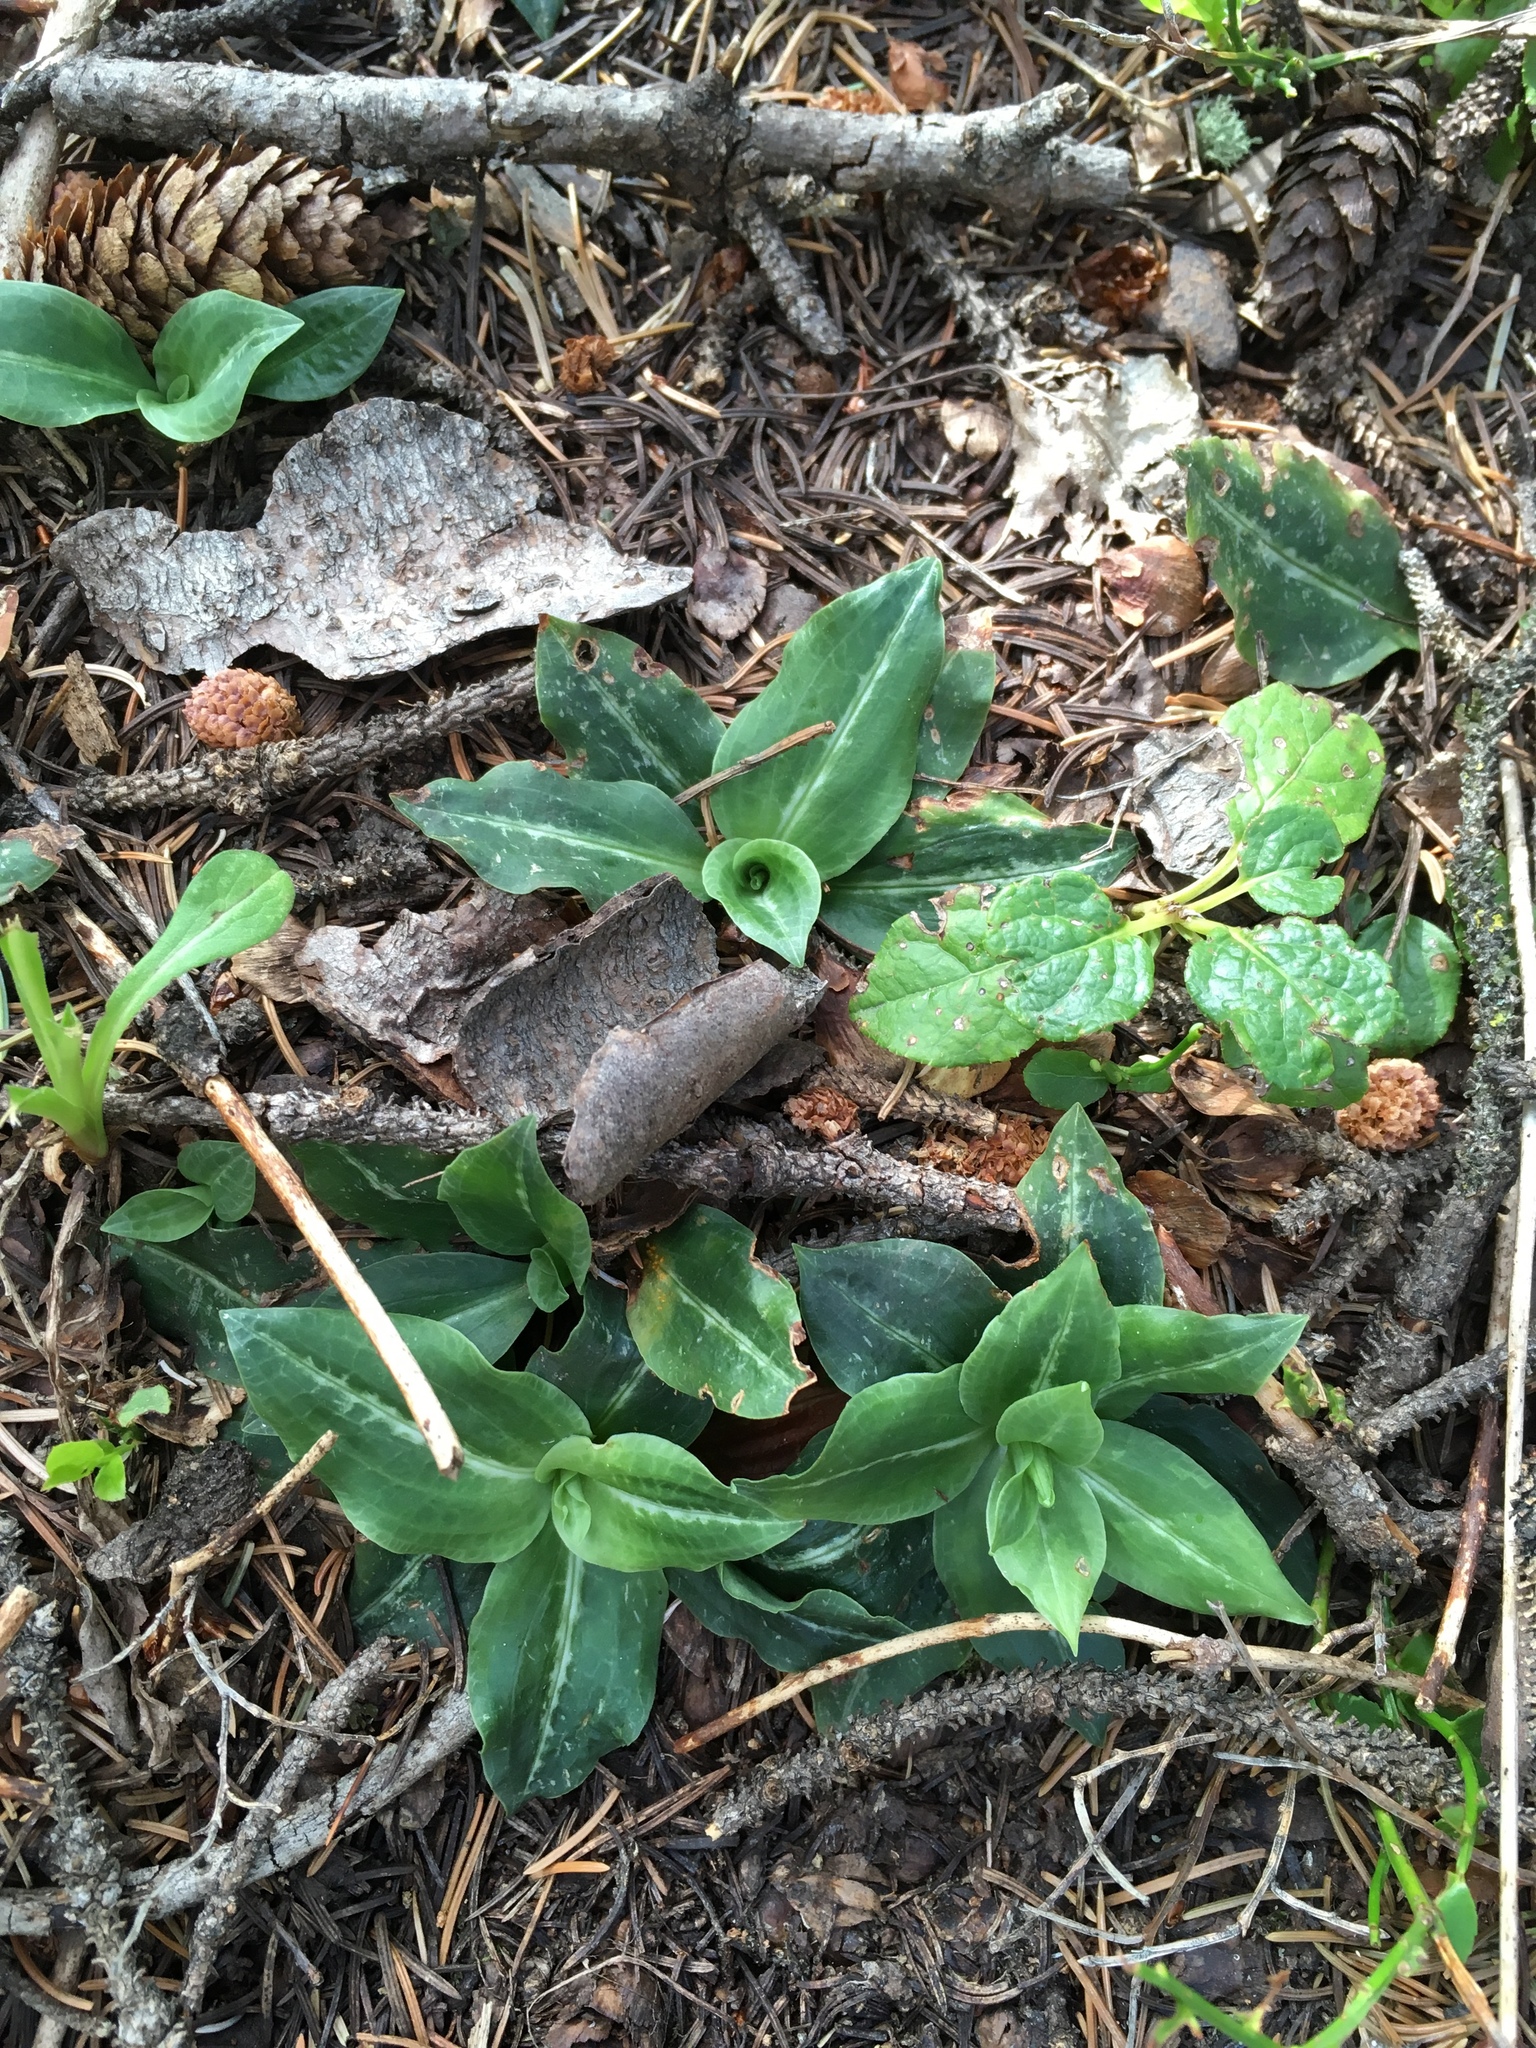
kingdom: Plantae
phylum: Tracheophyta
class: Liliopsida
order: Asparagales
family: Orchidaceae
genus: Goodyera
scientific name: Goodyera oblongifolia
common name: Giant rattlesnake-plantain
